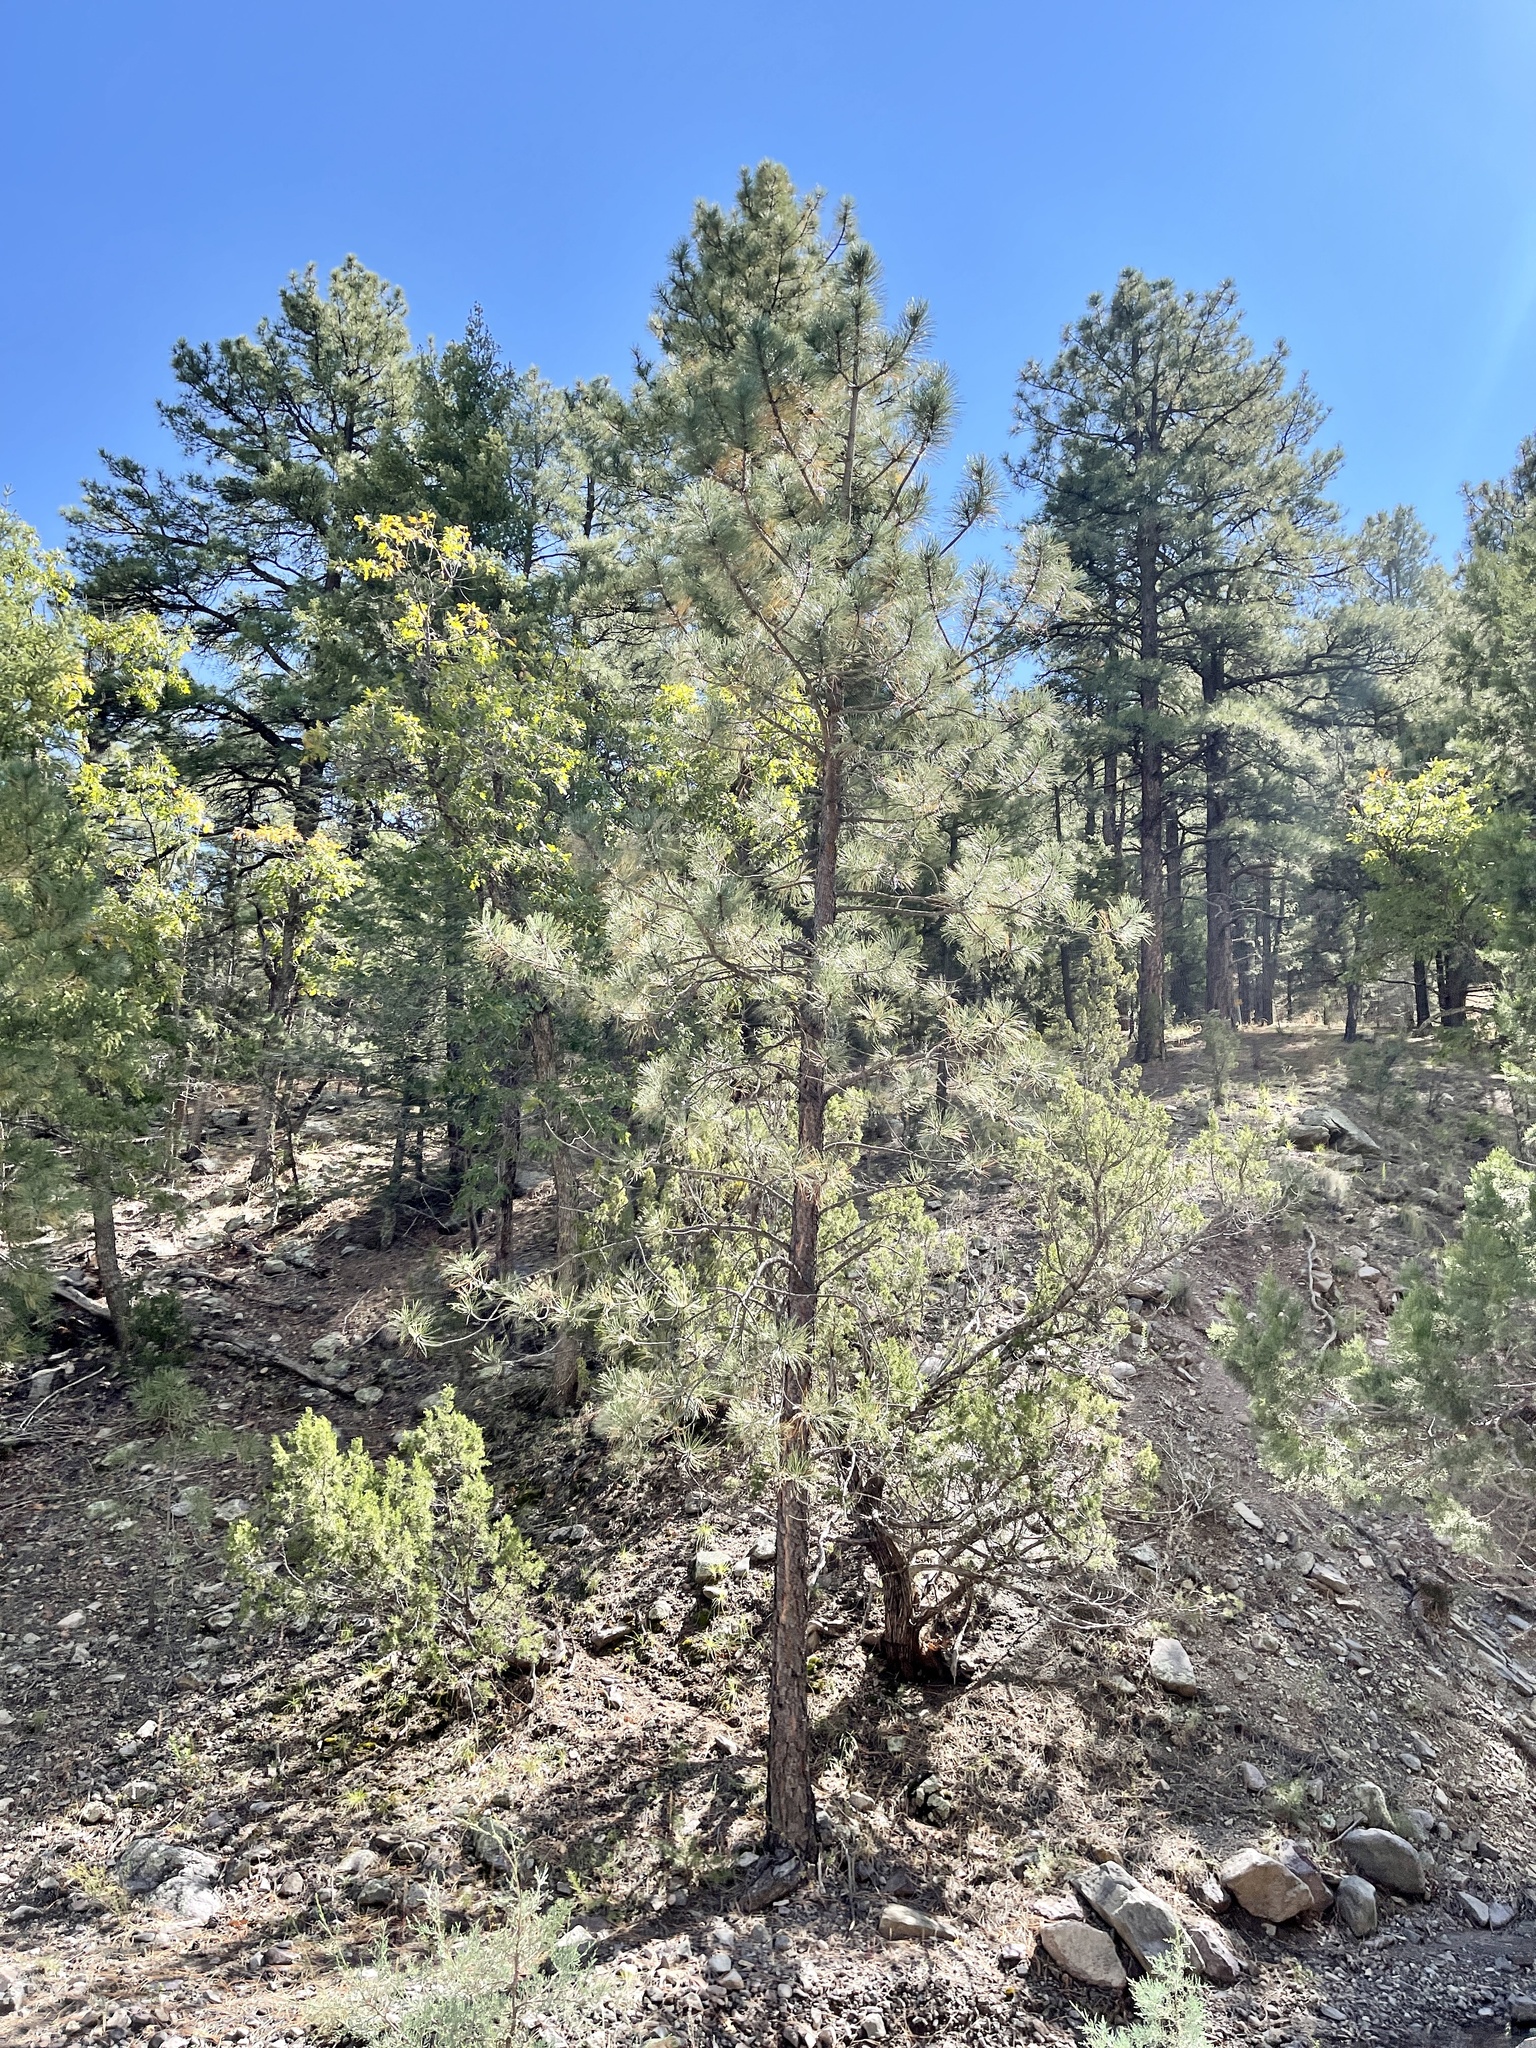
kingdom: Plantae
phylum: Tracheophyta
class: Pinopsida
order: Pinales
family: Pinaceae
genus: Pinus
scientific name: Pinus strobiformis
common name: Southwestern white pine
